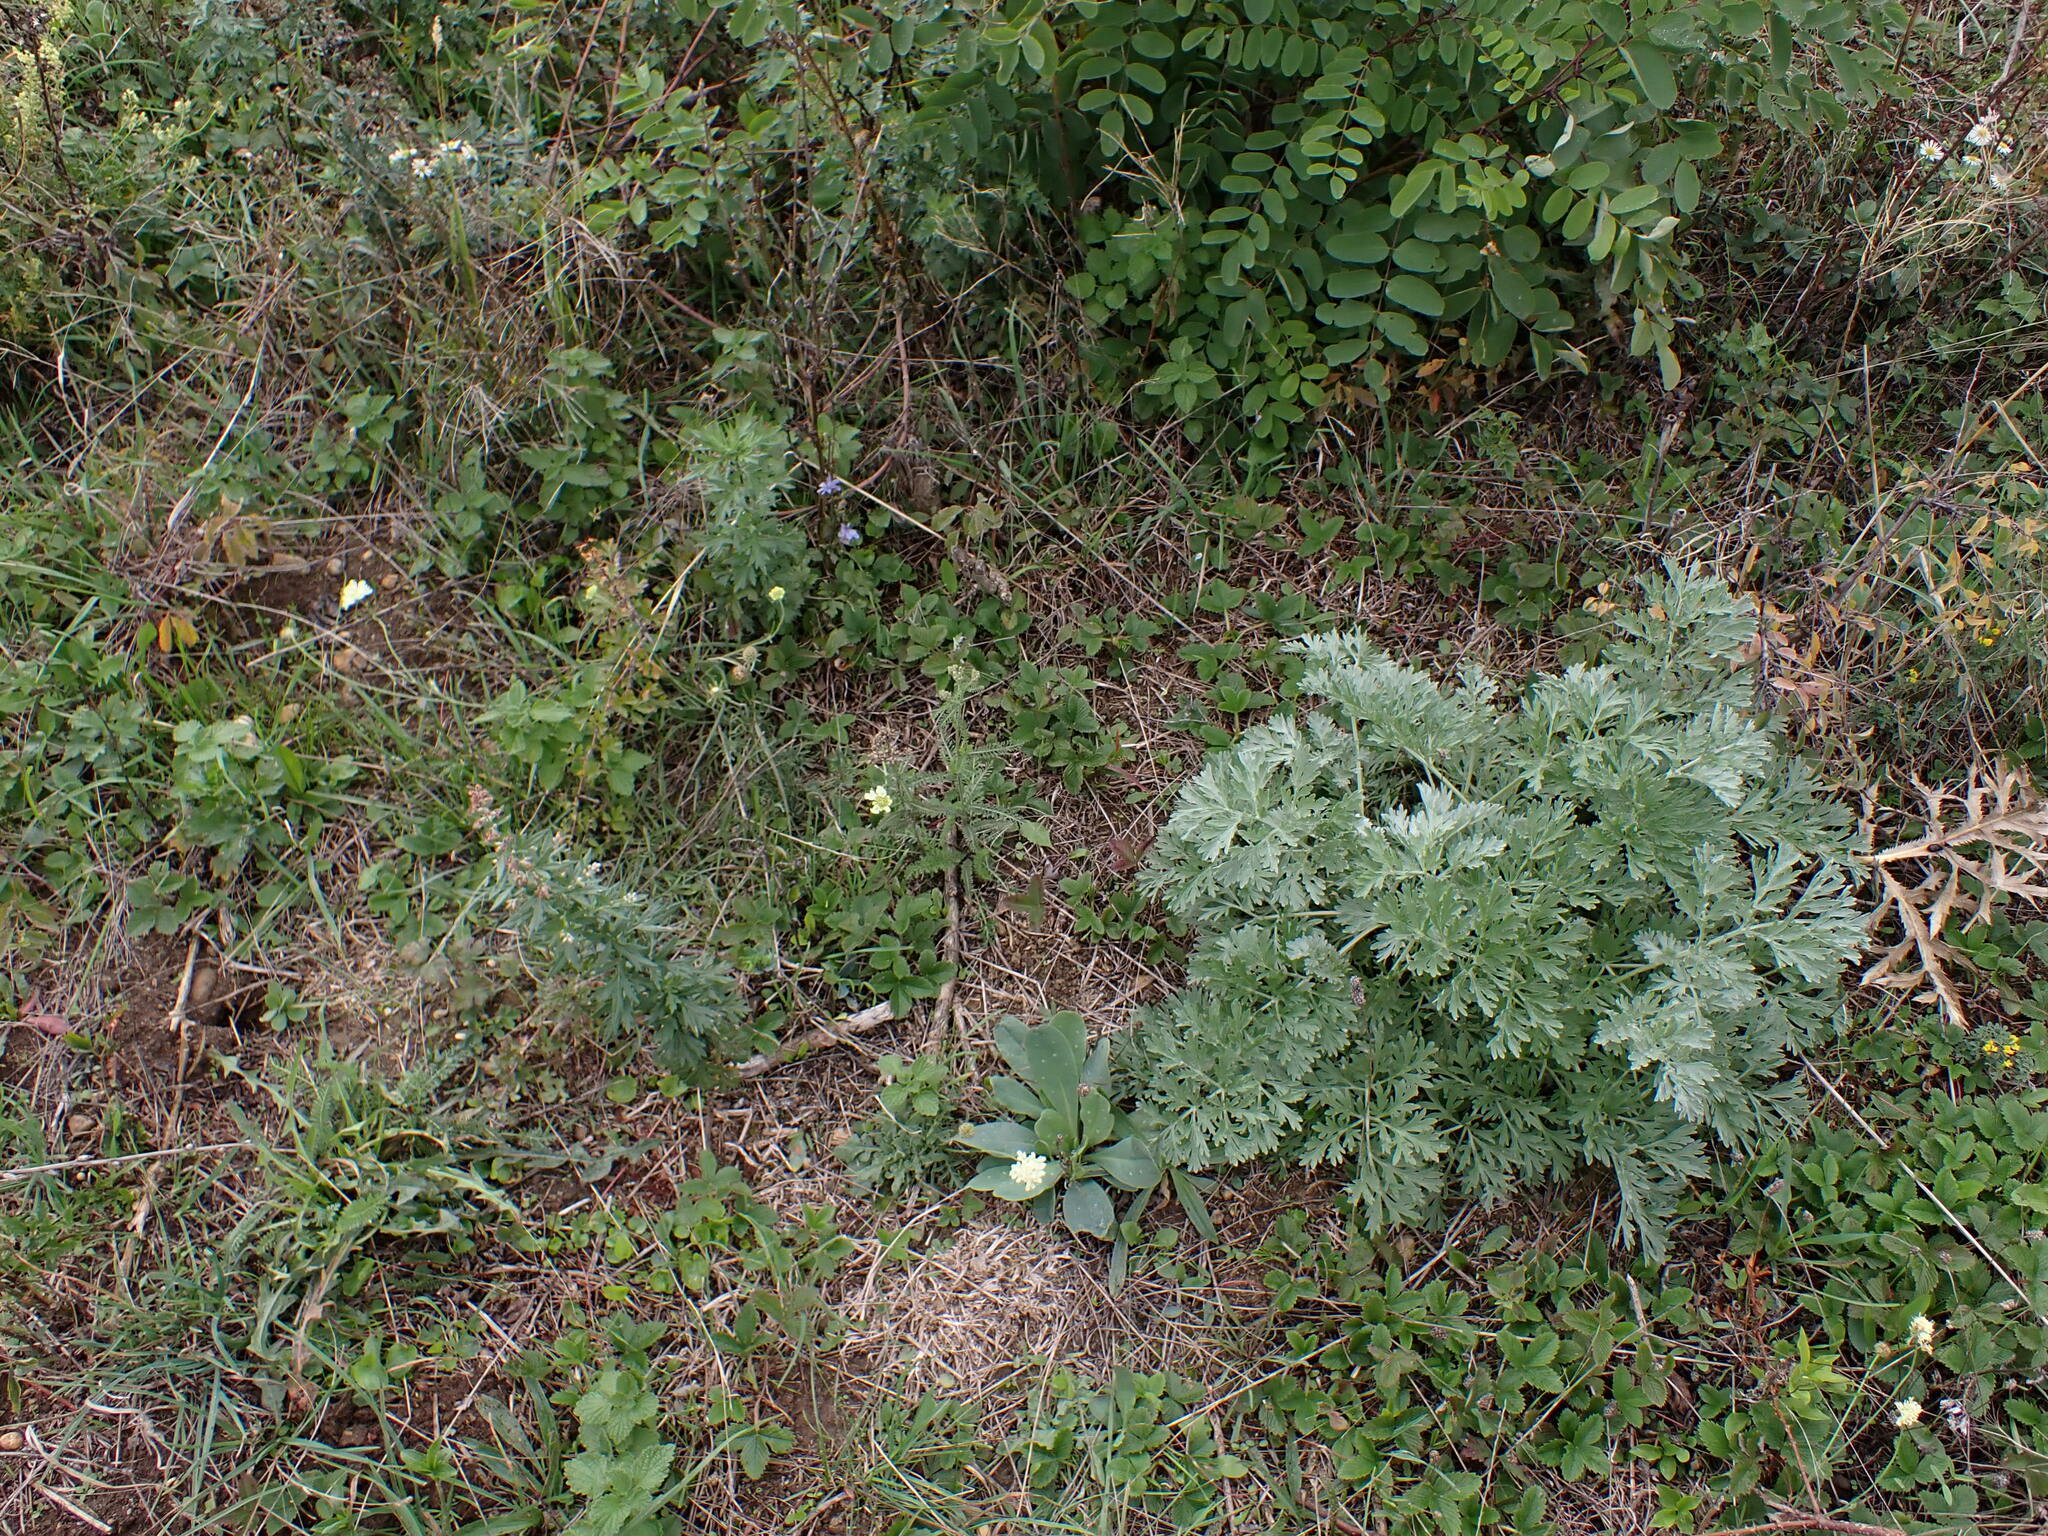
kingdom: Plantae
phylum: Tracheophyta
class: Magnoliopsida
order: Asterales
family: Asteraceae
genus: Artemisia
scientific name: Artemisia absinthium
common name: Wormwood
